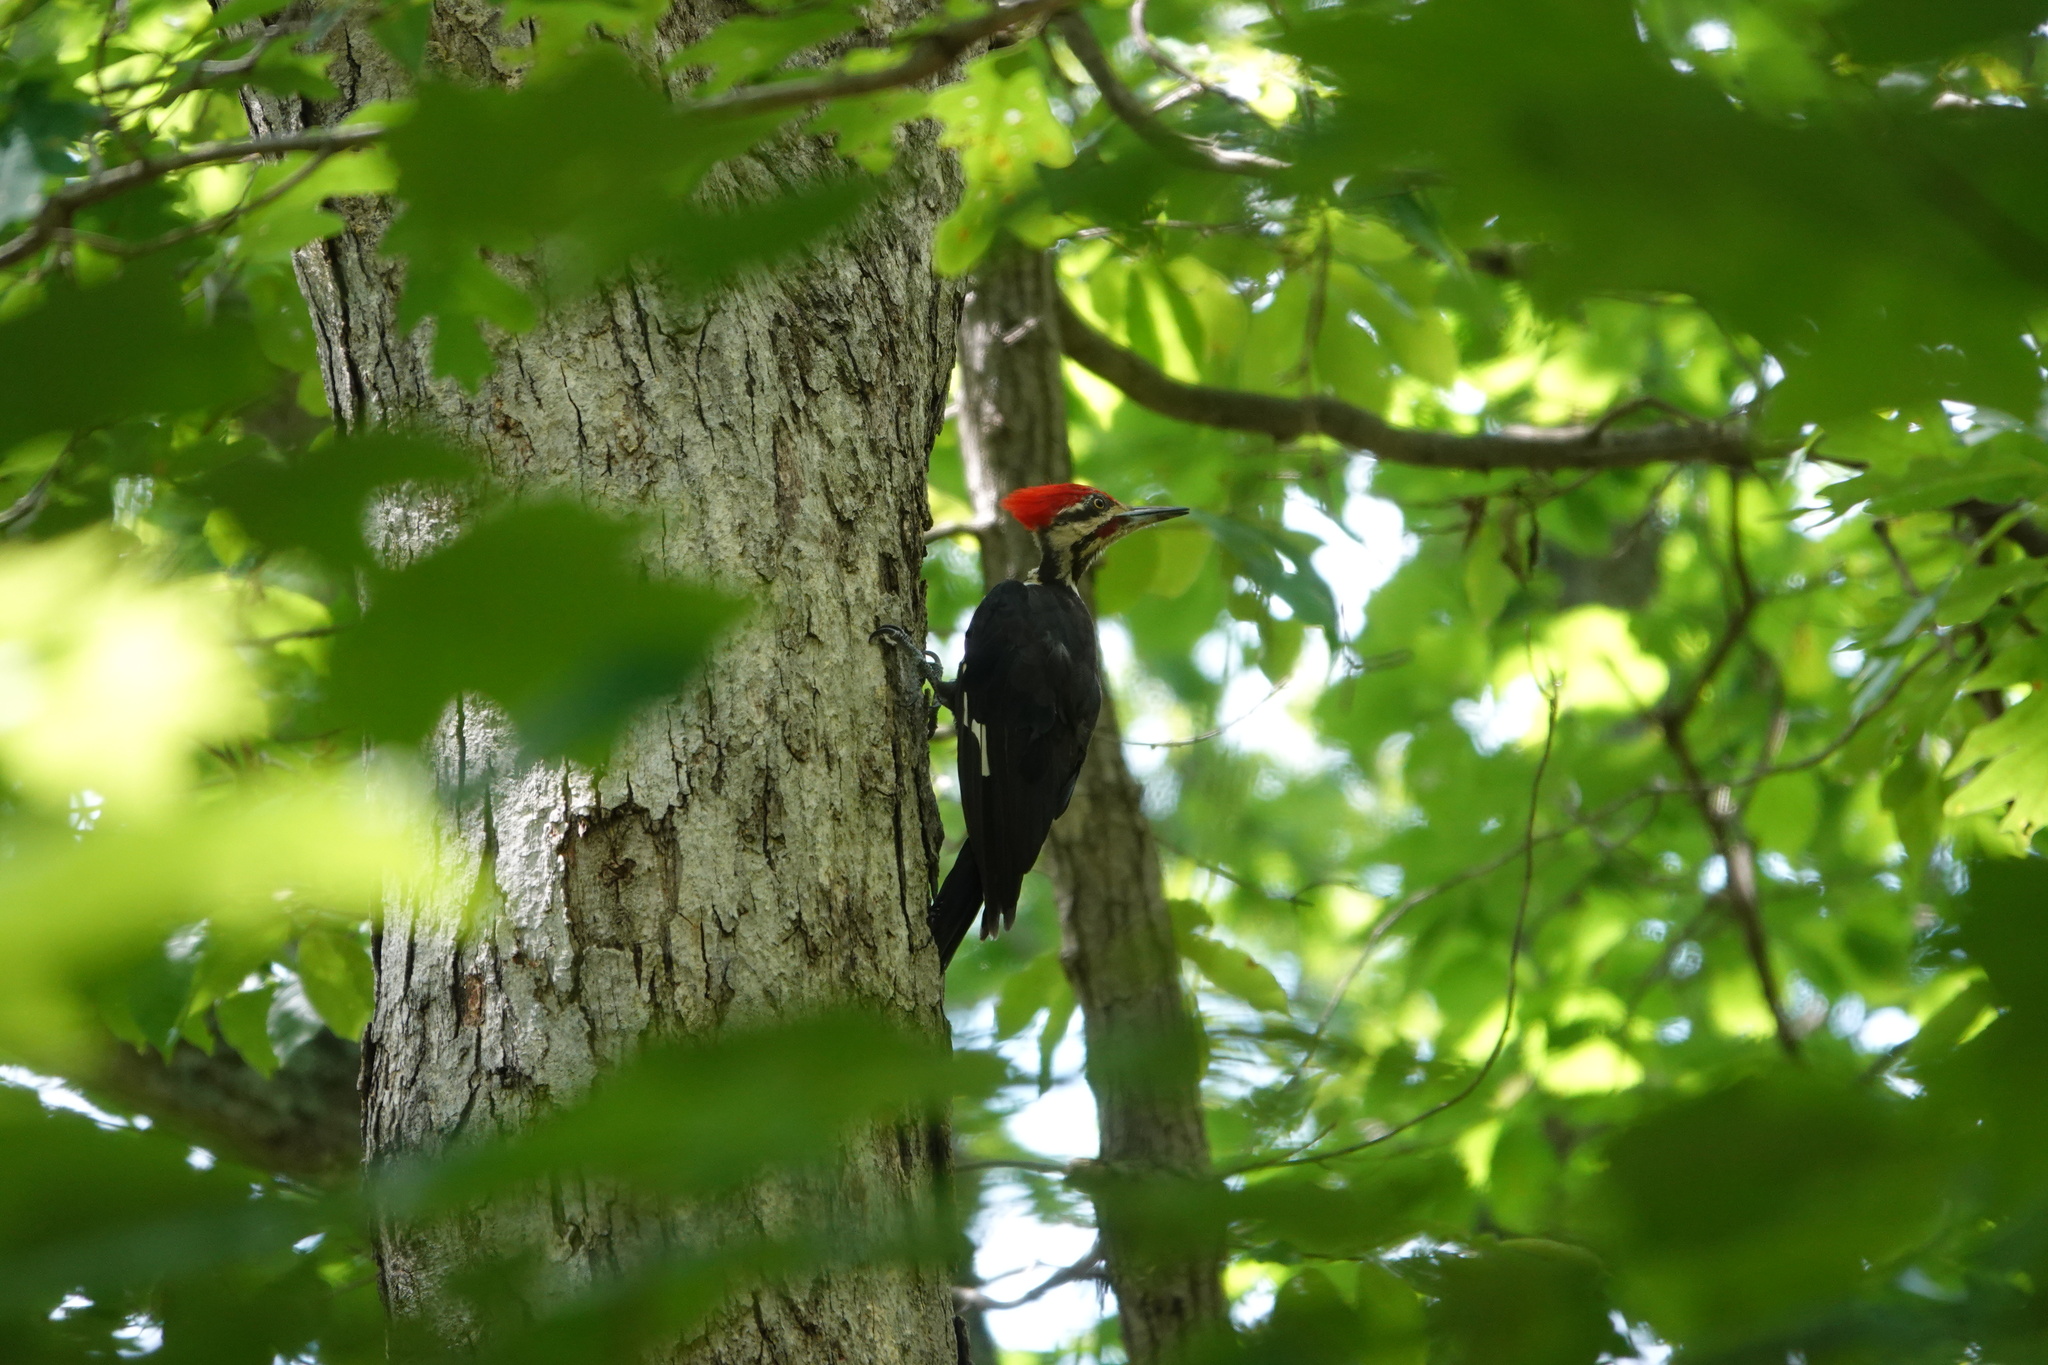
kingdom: Animalia
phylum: Chordata
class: Aves
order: Piciformes
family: Picidae
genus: Dryocopus
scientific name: Dryocopus pileatus
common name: Pileated woodpecker
